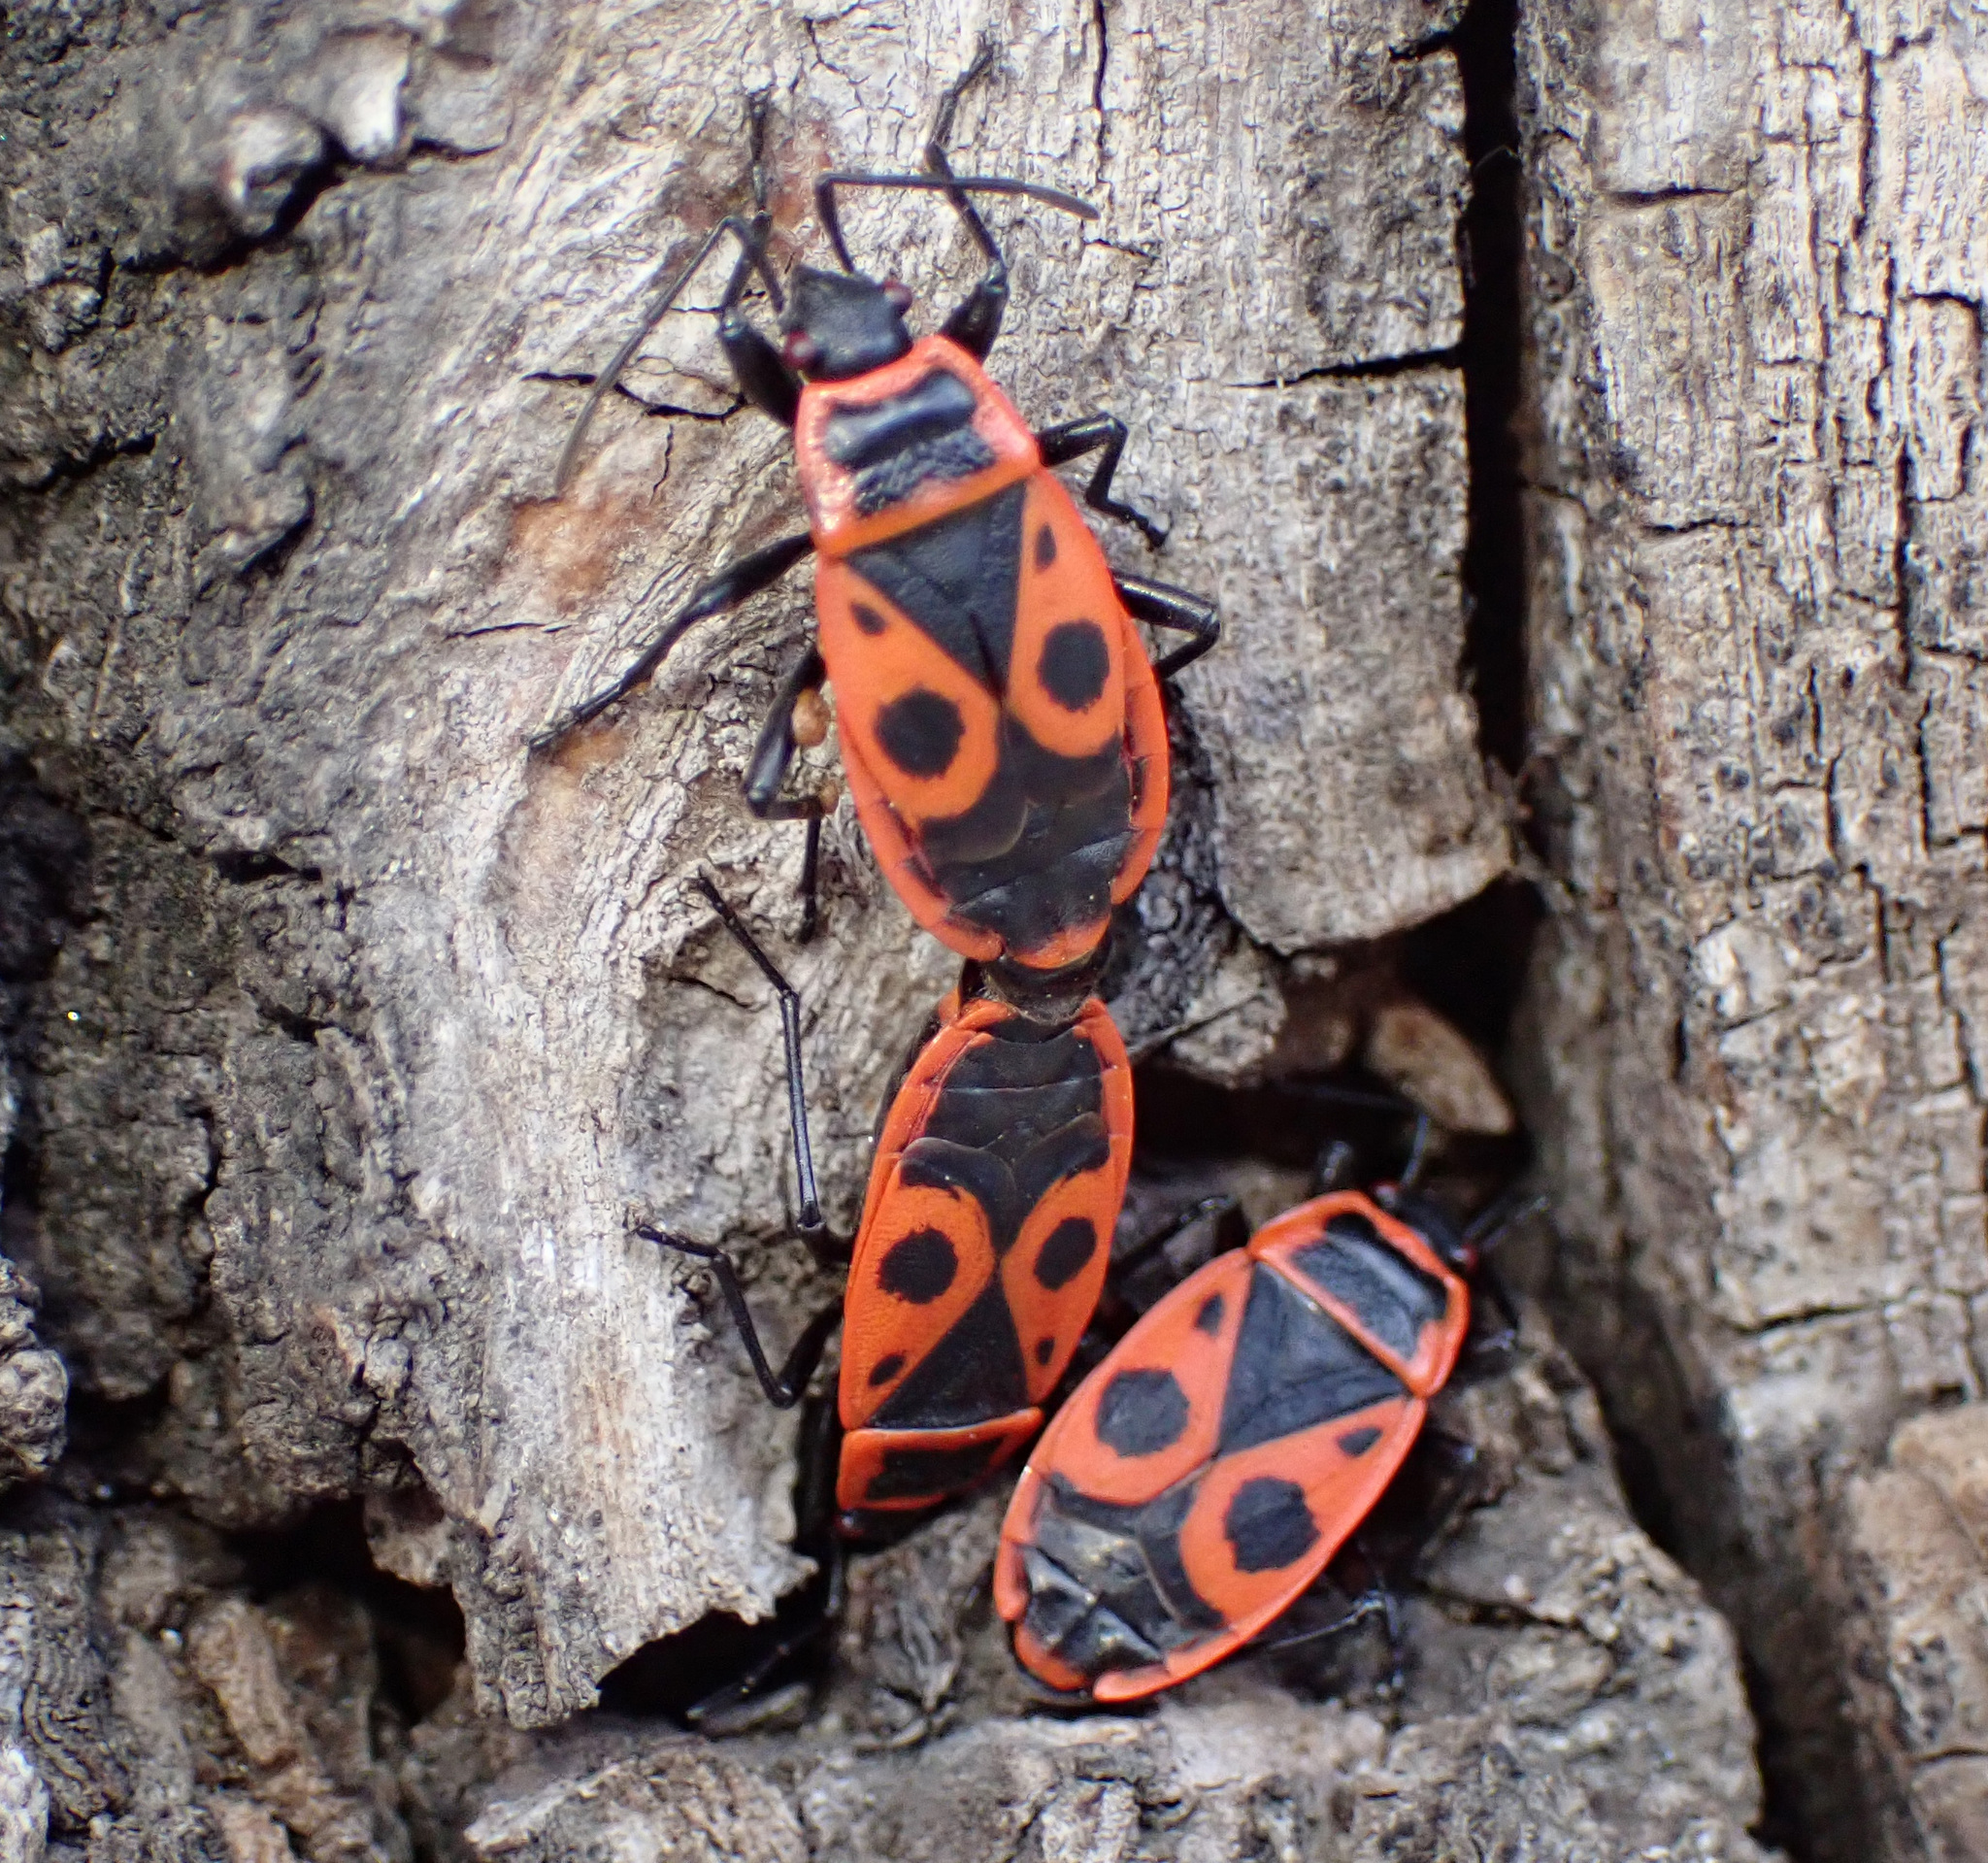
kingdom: Animalia
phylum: Arthropoda
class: Insecta
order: Hemiptera
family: Pyrrhocoridae
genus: Pyrrhocoris
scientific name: Pyrrhocoris apterus
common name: Firebug
